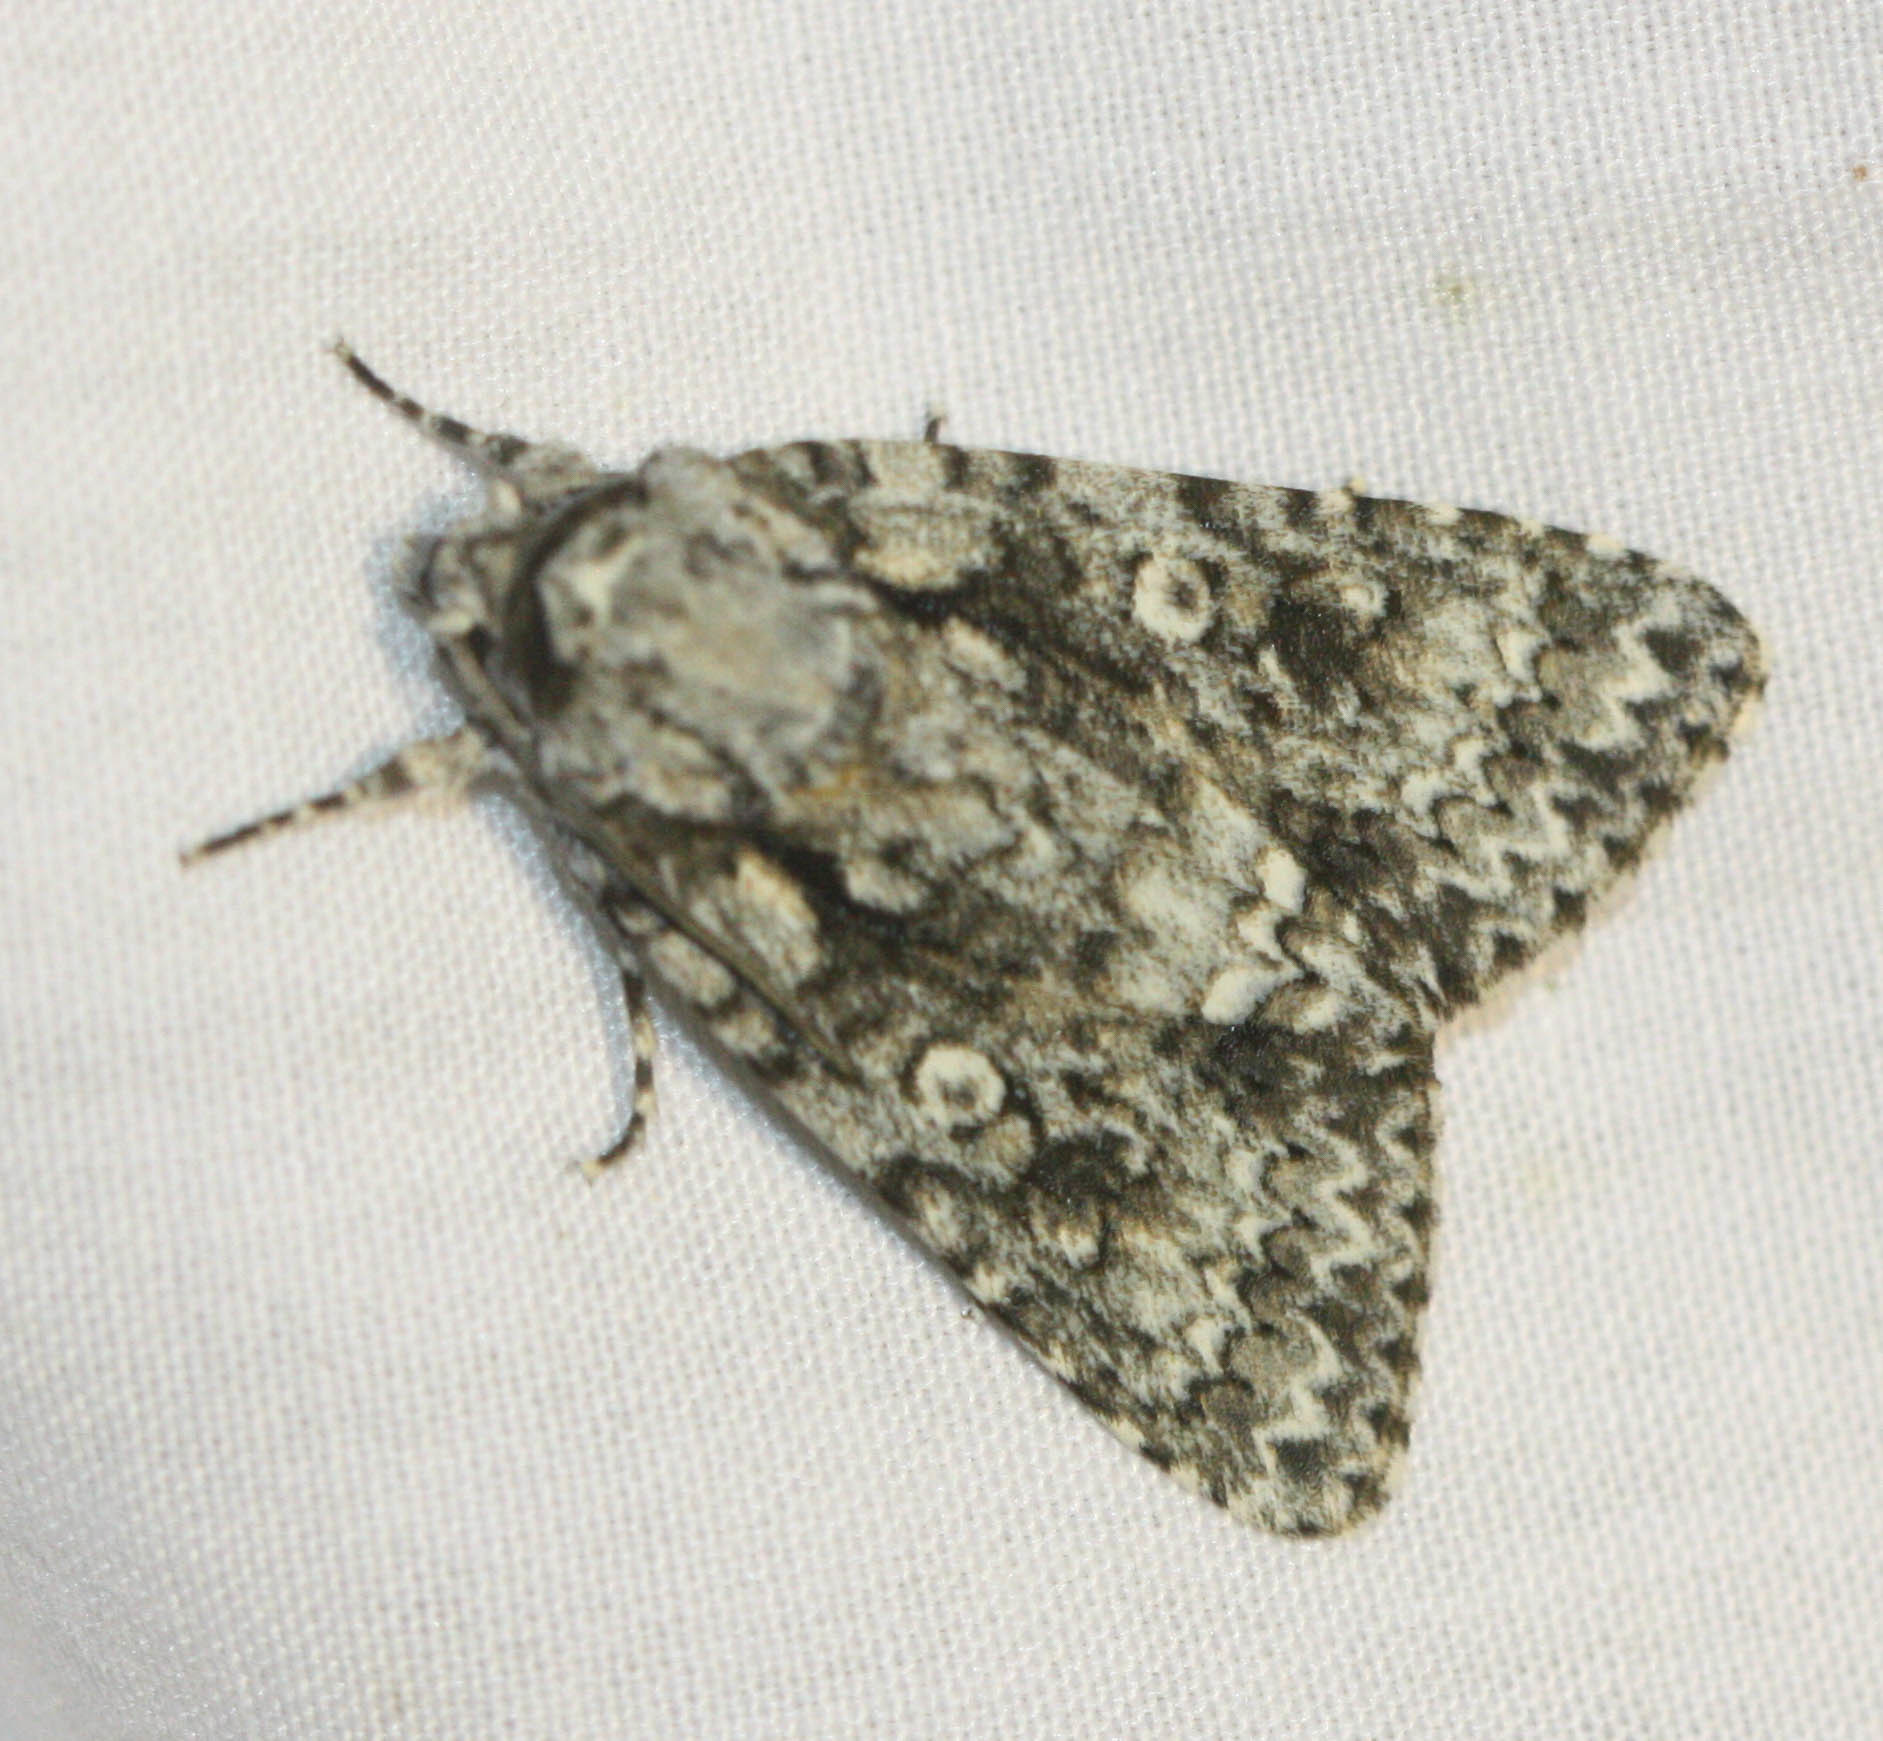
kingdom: Animalia
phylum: Arthropoda
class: Insecta
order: Lepidoptera
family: Noctuidae
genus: Acronicta
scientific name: Acronicta marmorata
